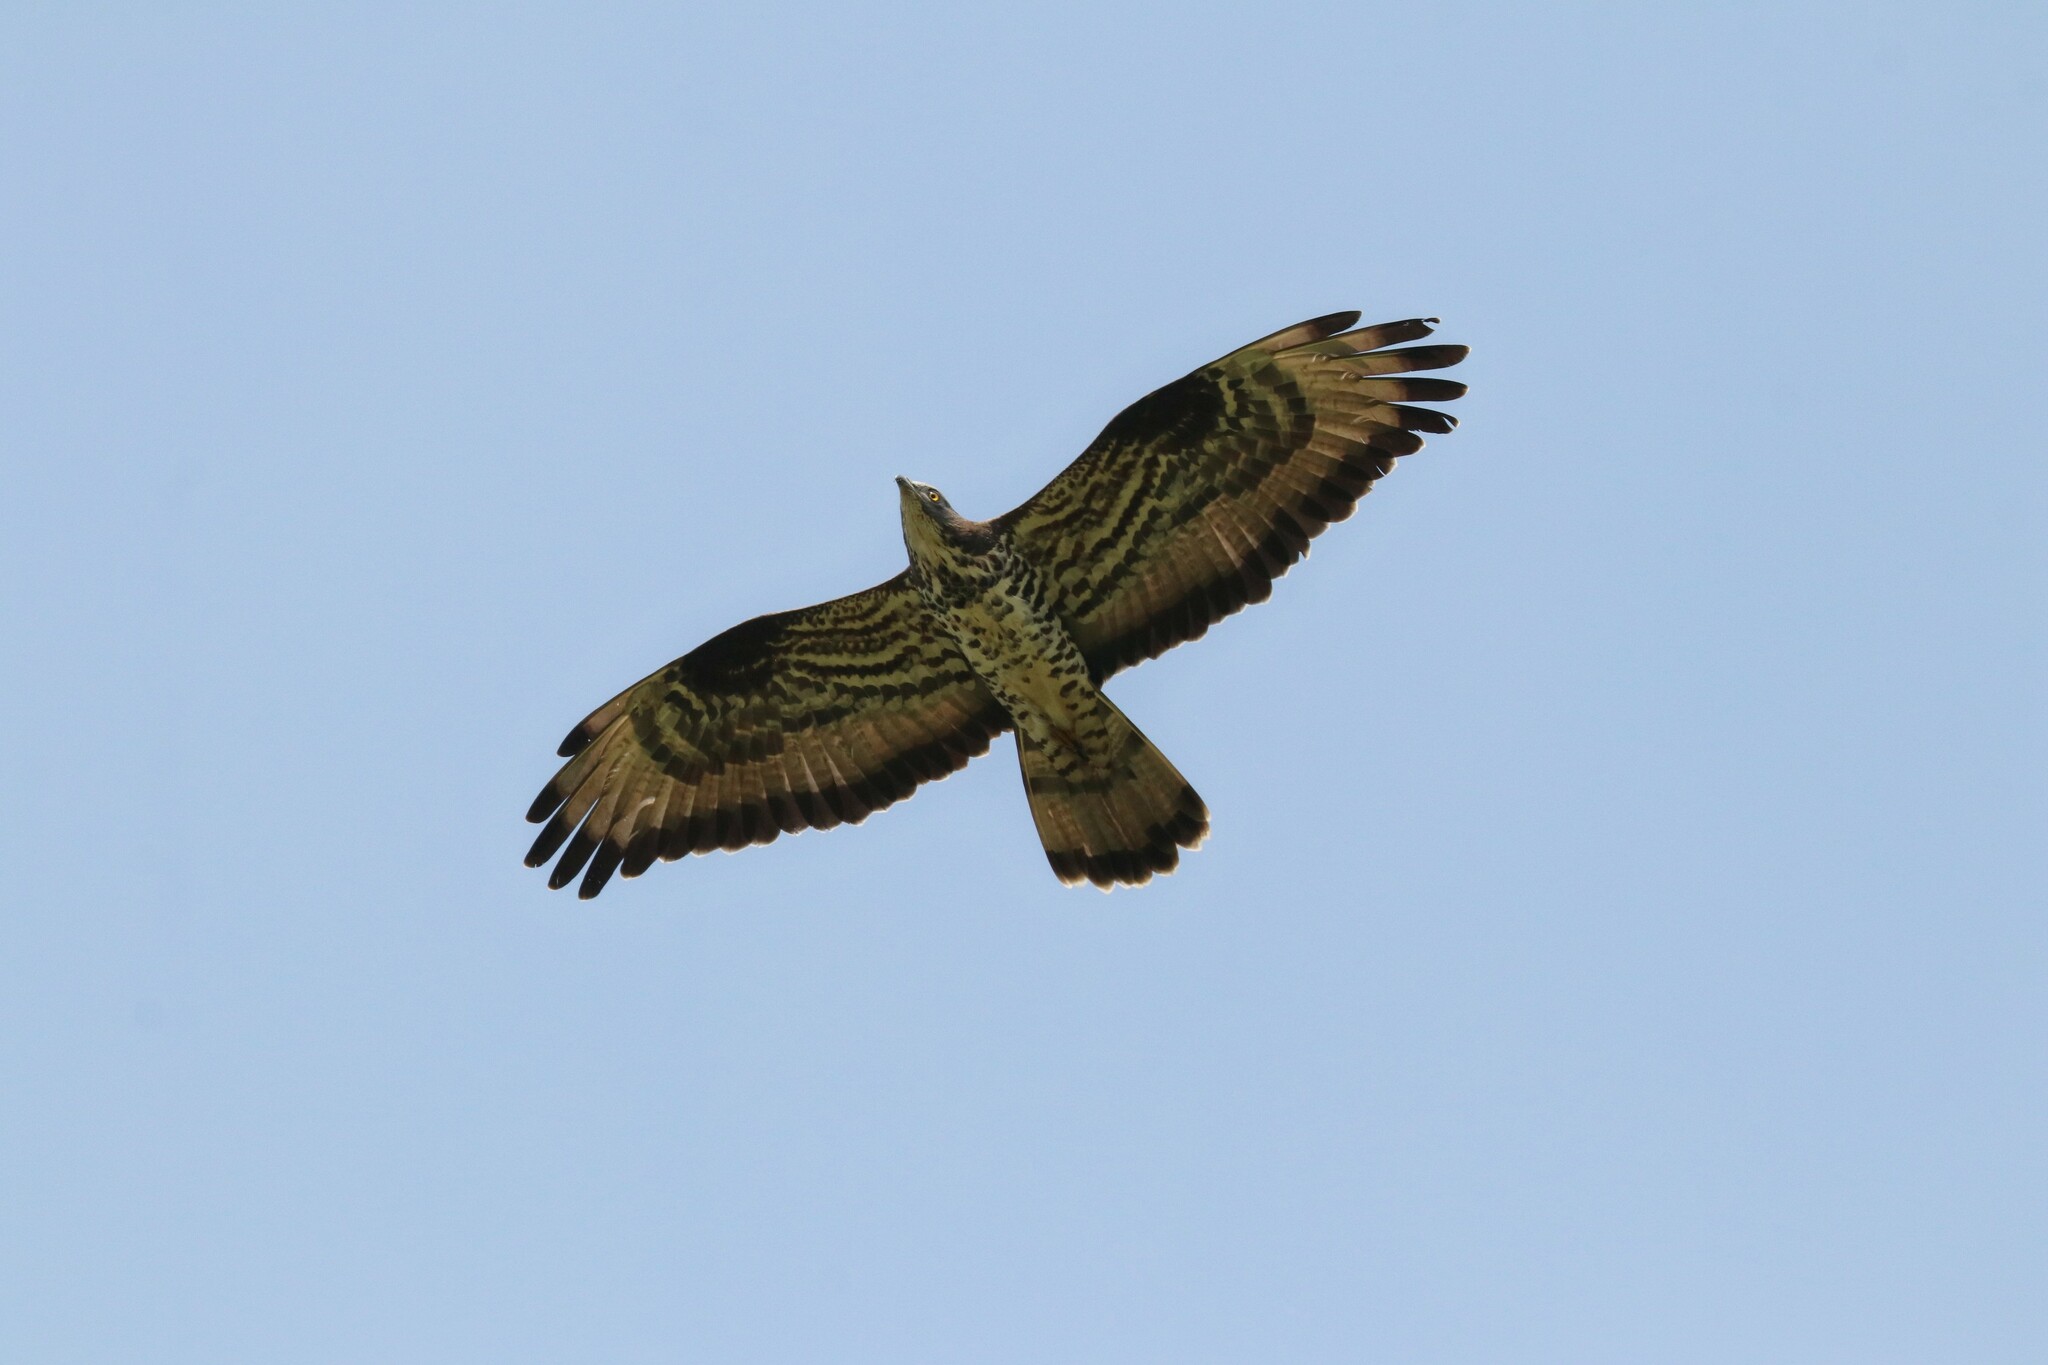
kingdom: Animalia
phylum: Chordata
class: Aves
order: Accipitriformes
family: Accipitridae
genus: Pernis
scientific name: Pernis apivorus
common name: European honey buzzard
